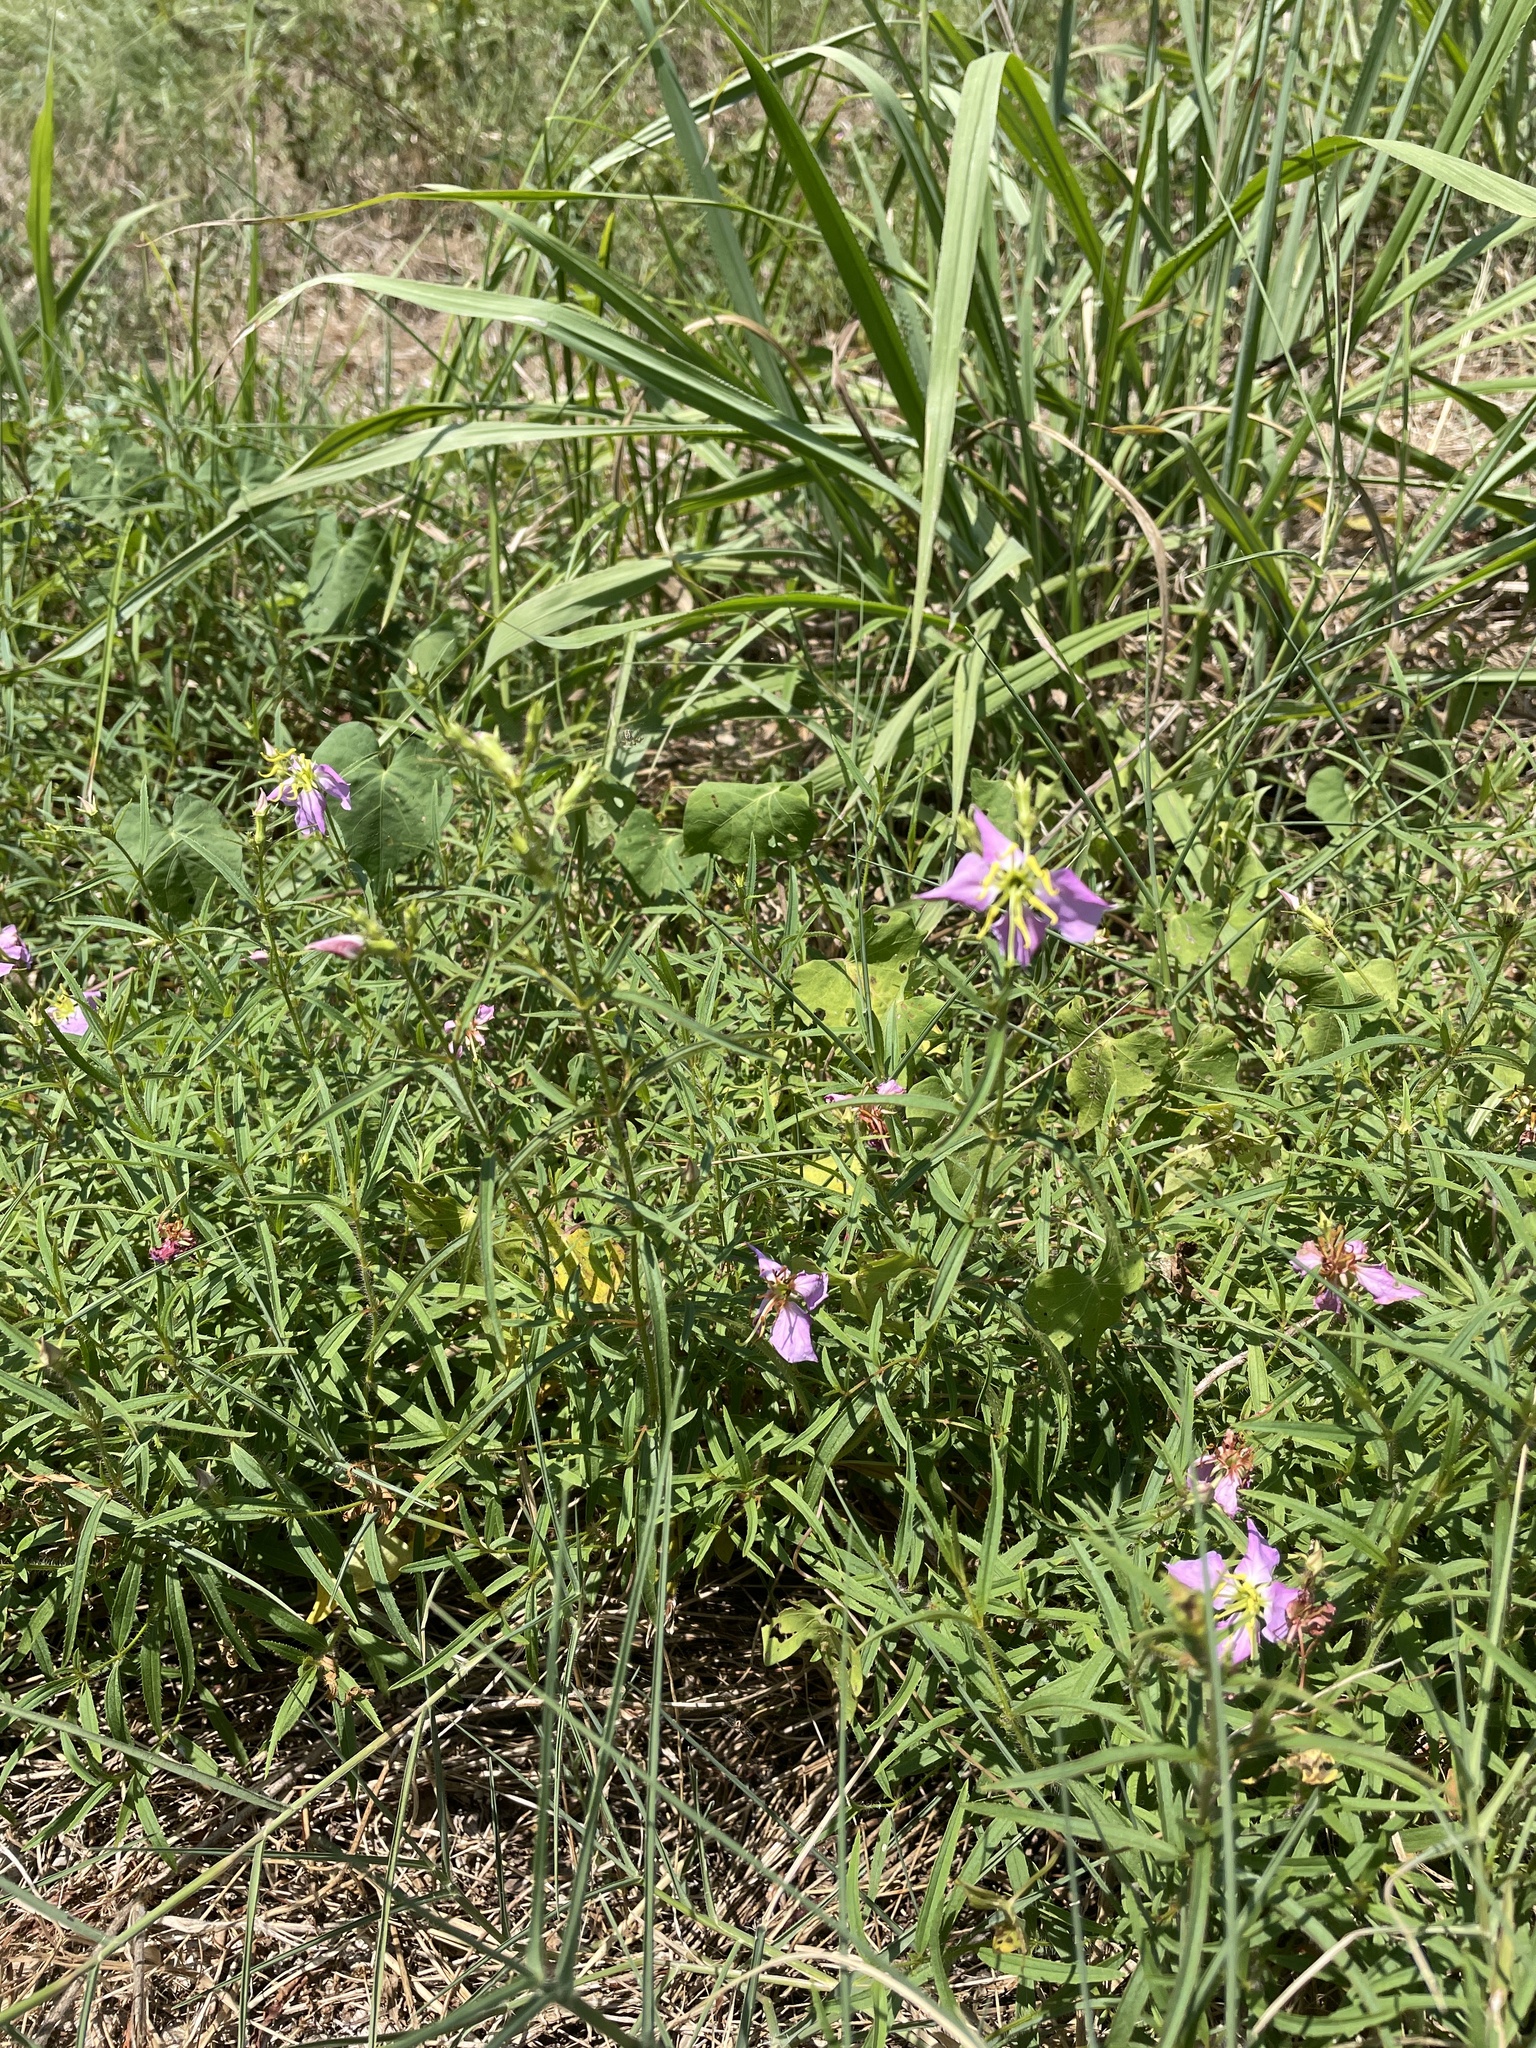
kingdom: Plantae
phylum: Tracheophyta
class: Magnoliopsida
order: Myrtales
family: Melastomataceae
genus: Rhexia
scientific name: Rhexia mariana
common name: Dull meadow-pitcher
